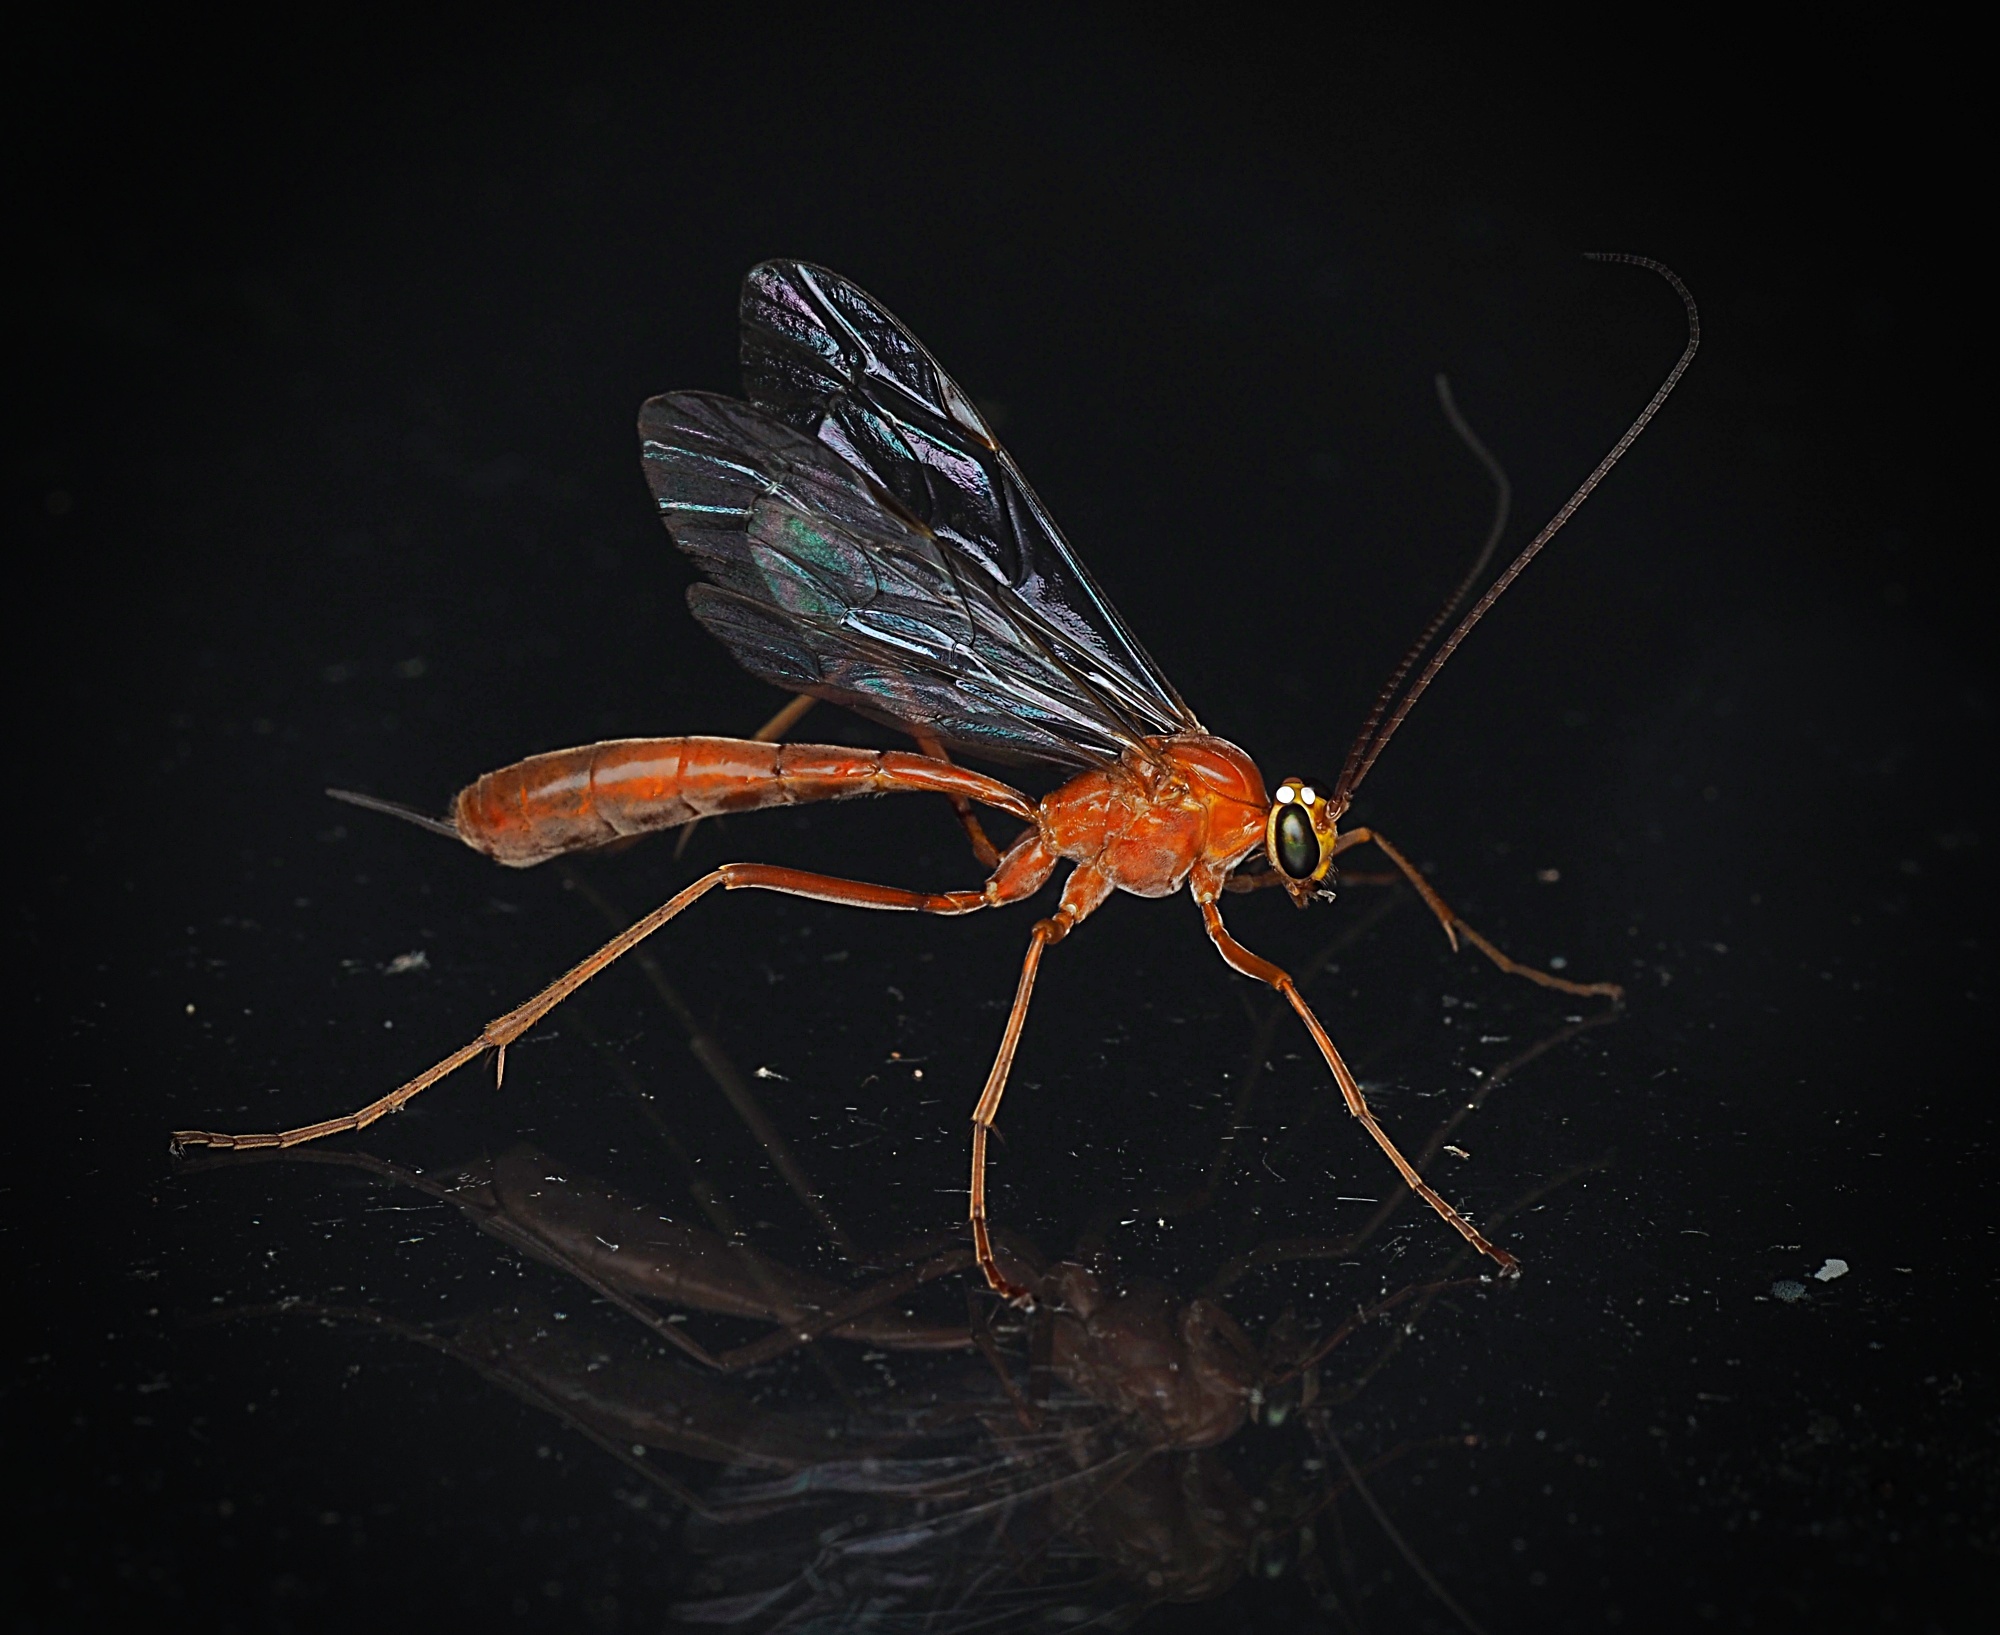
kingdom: Animalia
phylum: Arthropoda
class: Insecta
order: Hymenoptera
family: Ichneumonidae
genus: Netelia
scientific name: Netelia producta
